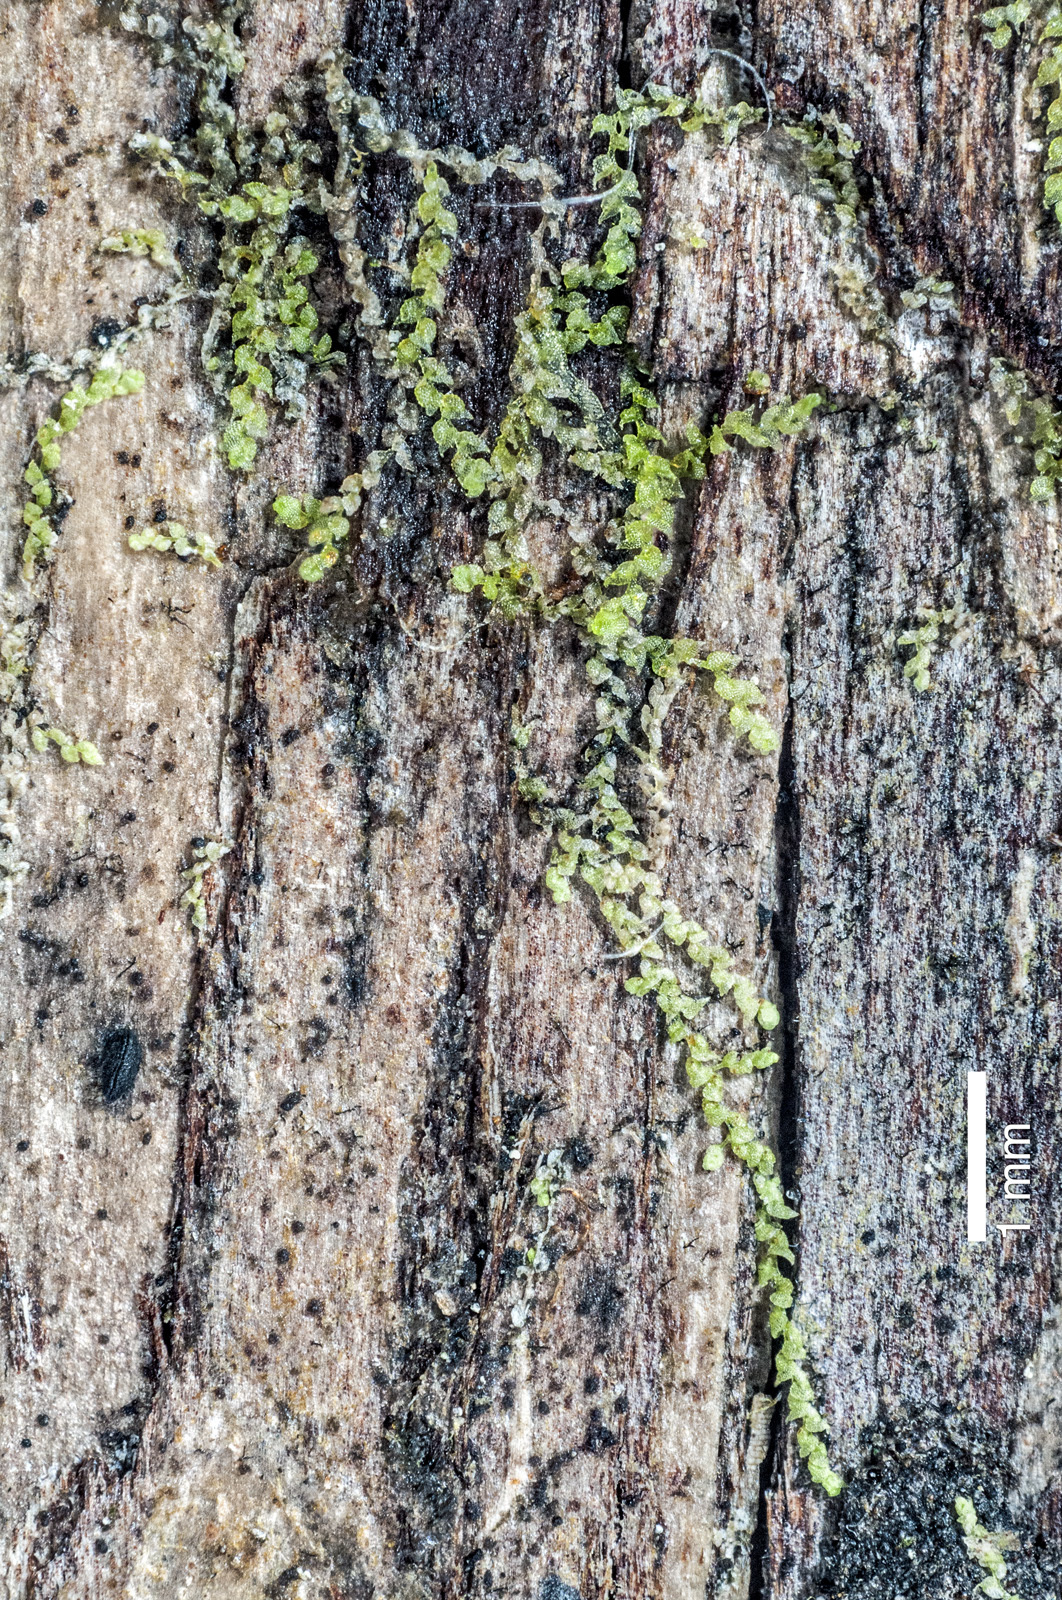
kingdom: Plantae
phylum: Marchantiophyta
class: Jungermanniopsida
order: Porellales
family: Lejeuneaceae
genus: Microlejeunea
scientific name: Microlejeunea latitans
